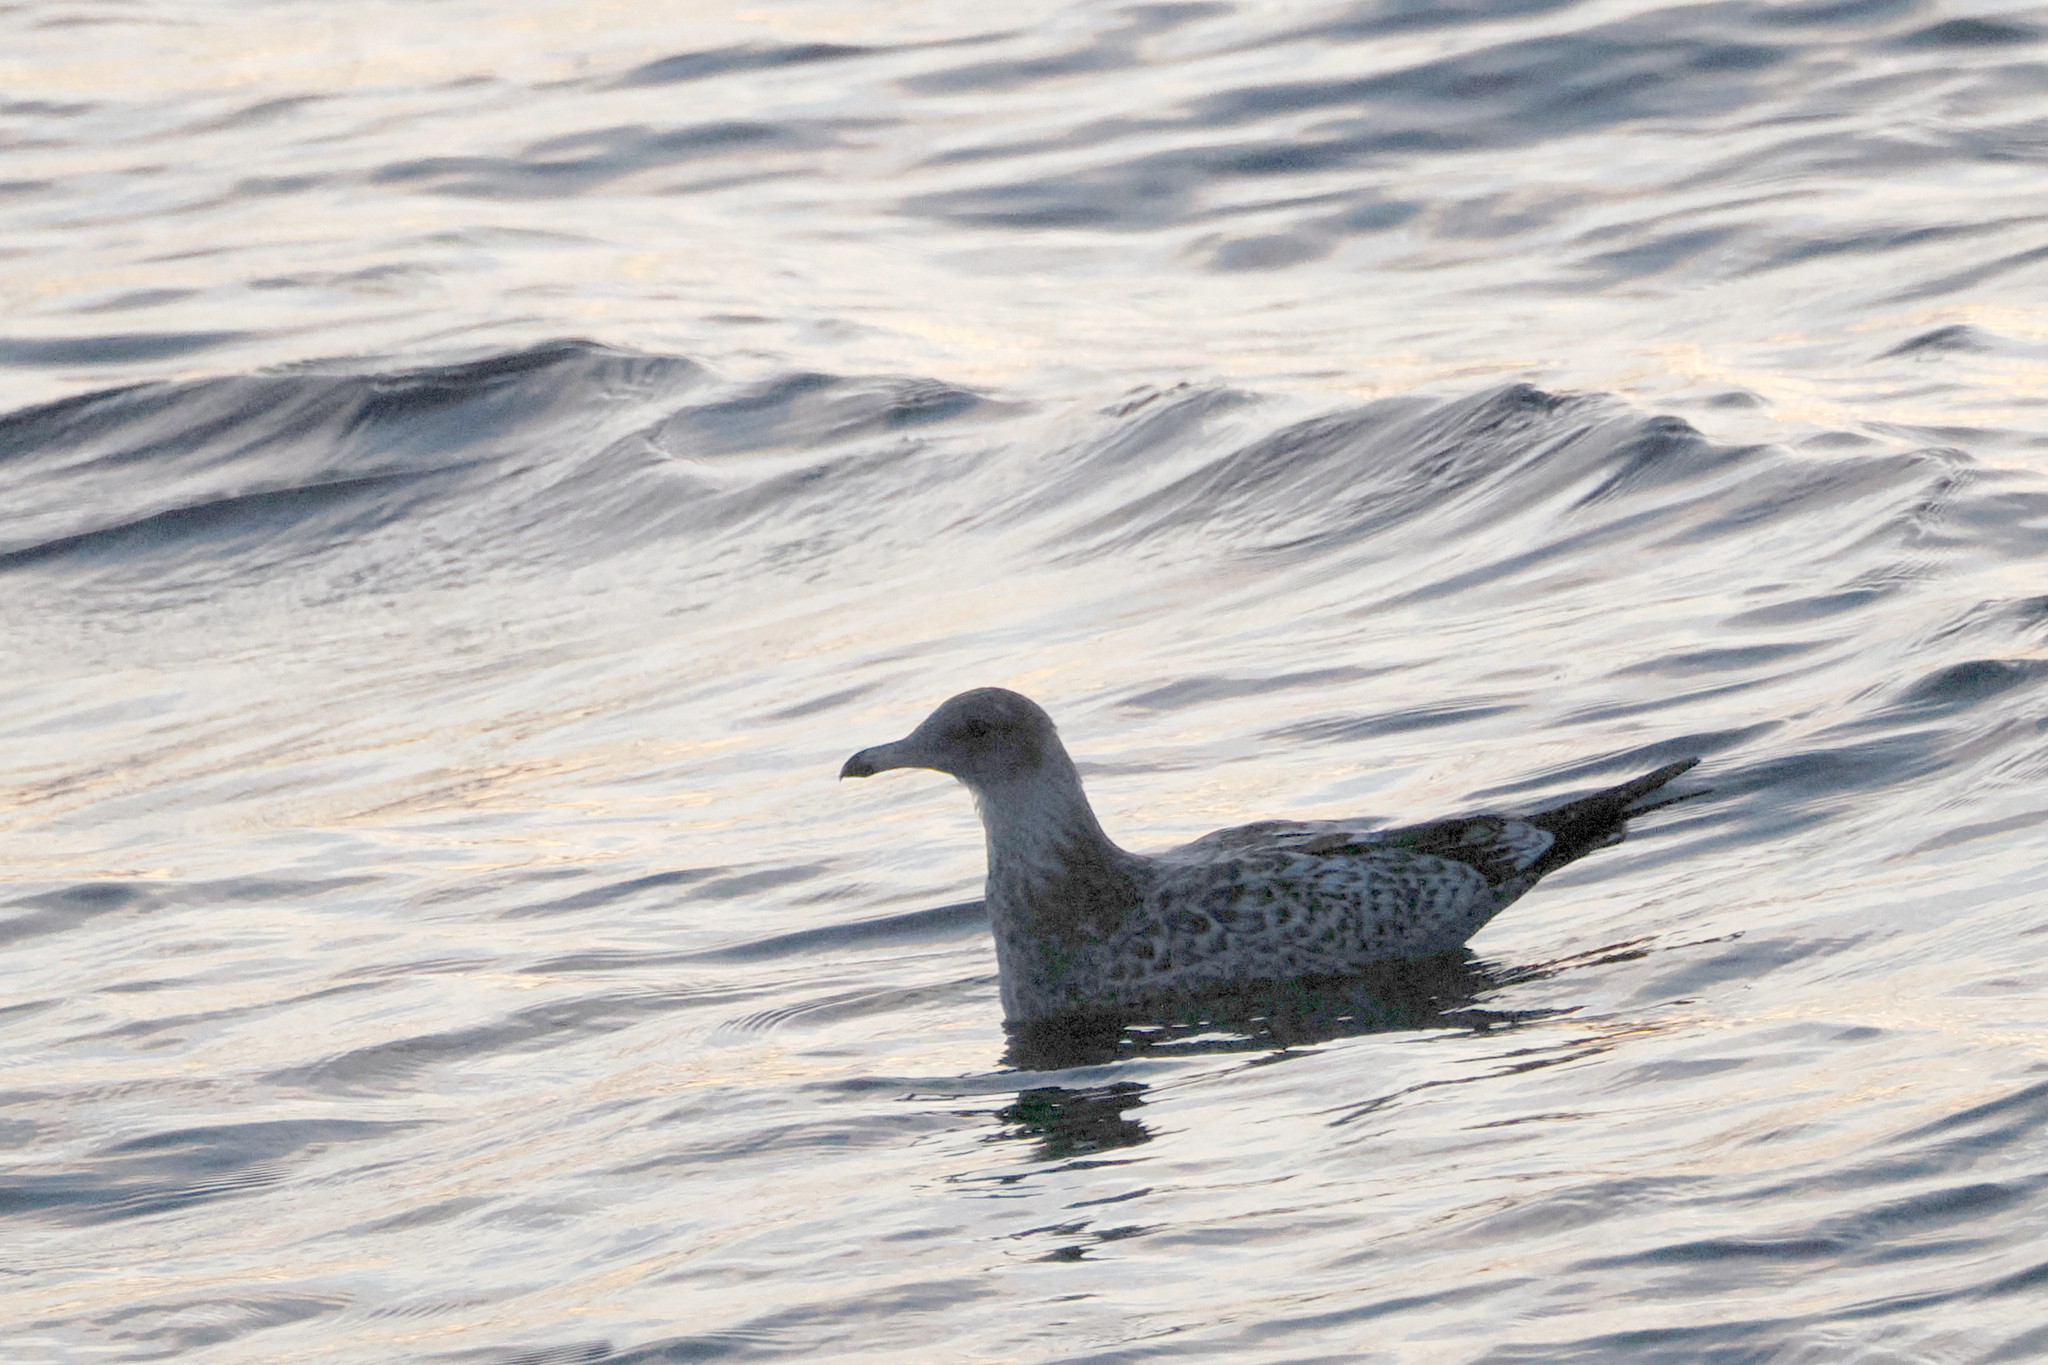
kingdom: Animalia
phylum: Chordata
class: Aves
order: Charadriiformes
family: Laridae
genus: Larus
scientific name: Larus californicus
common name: California gull
